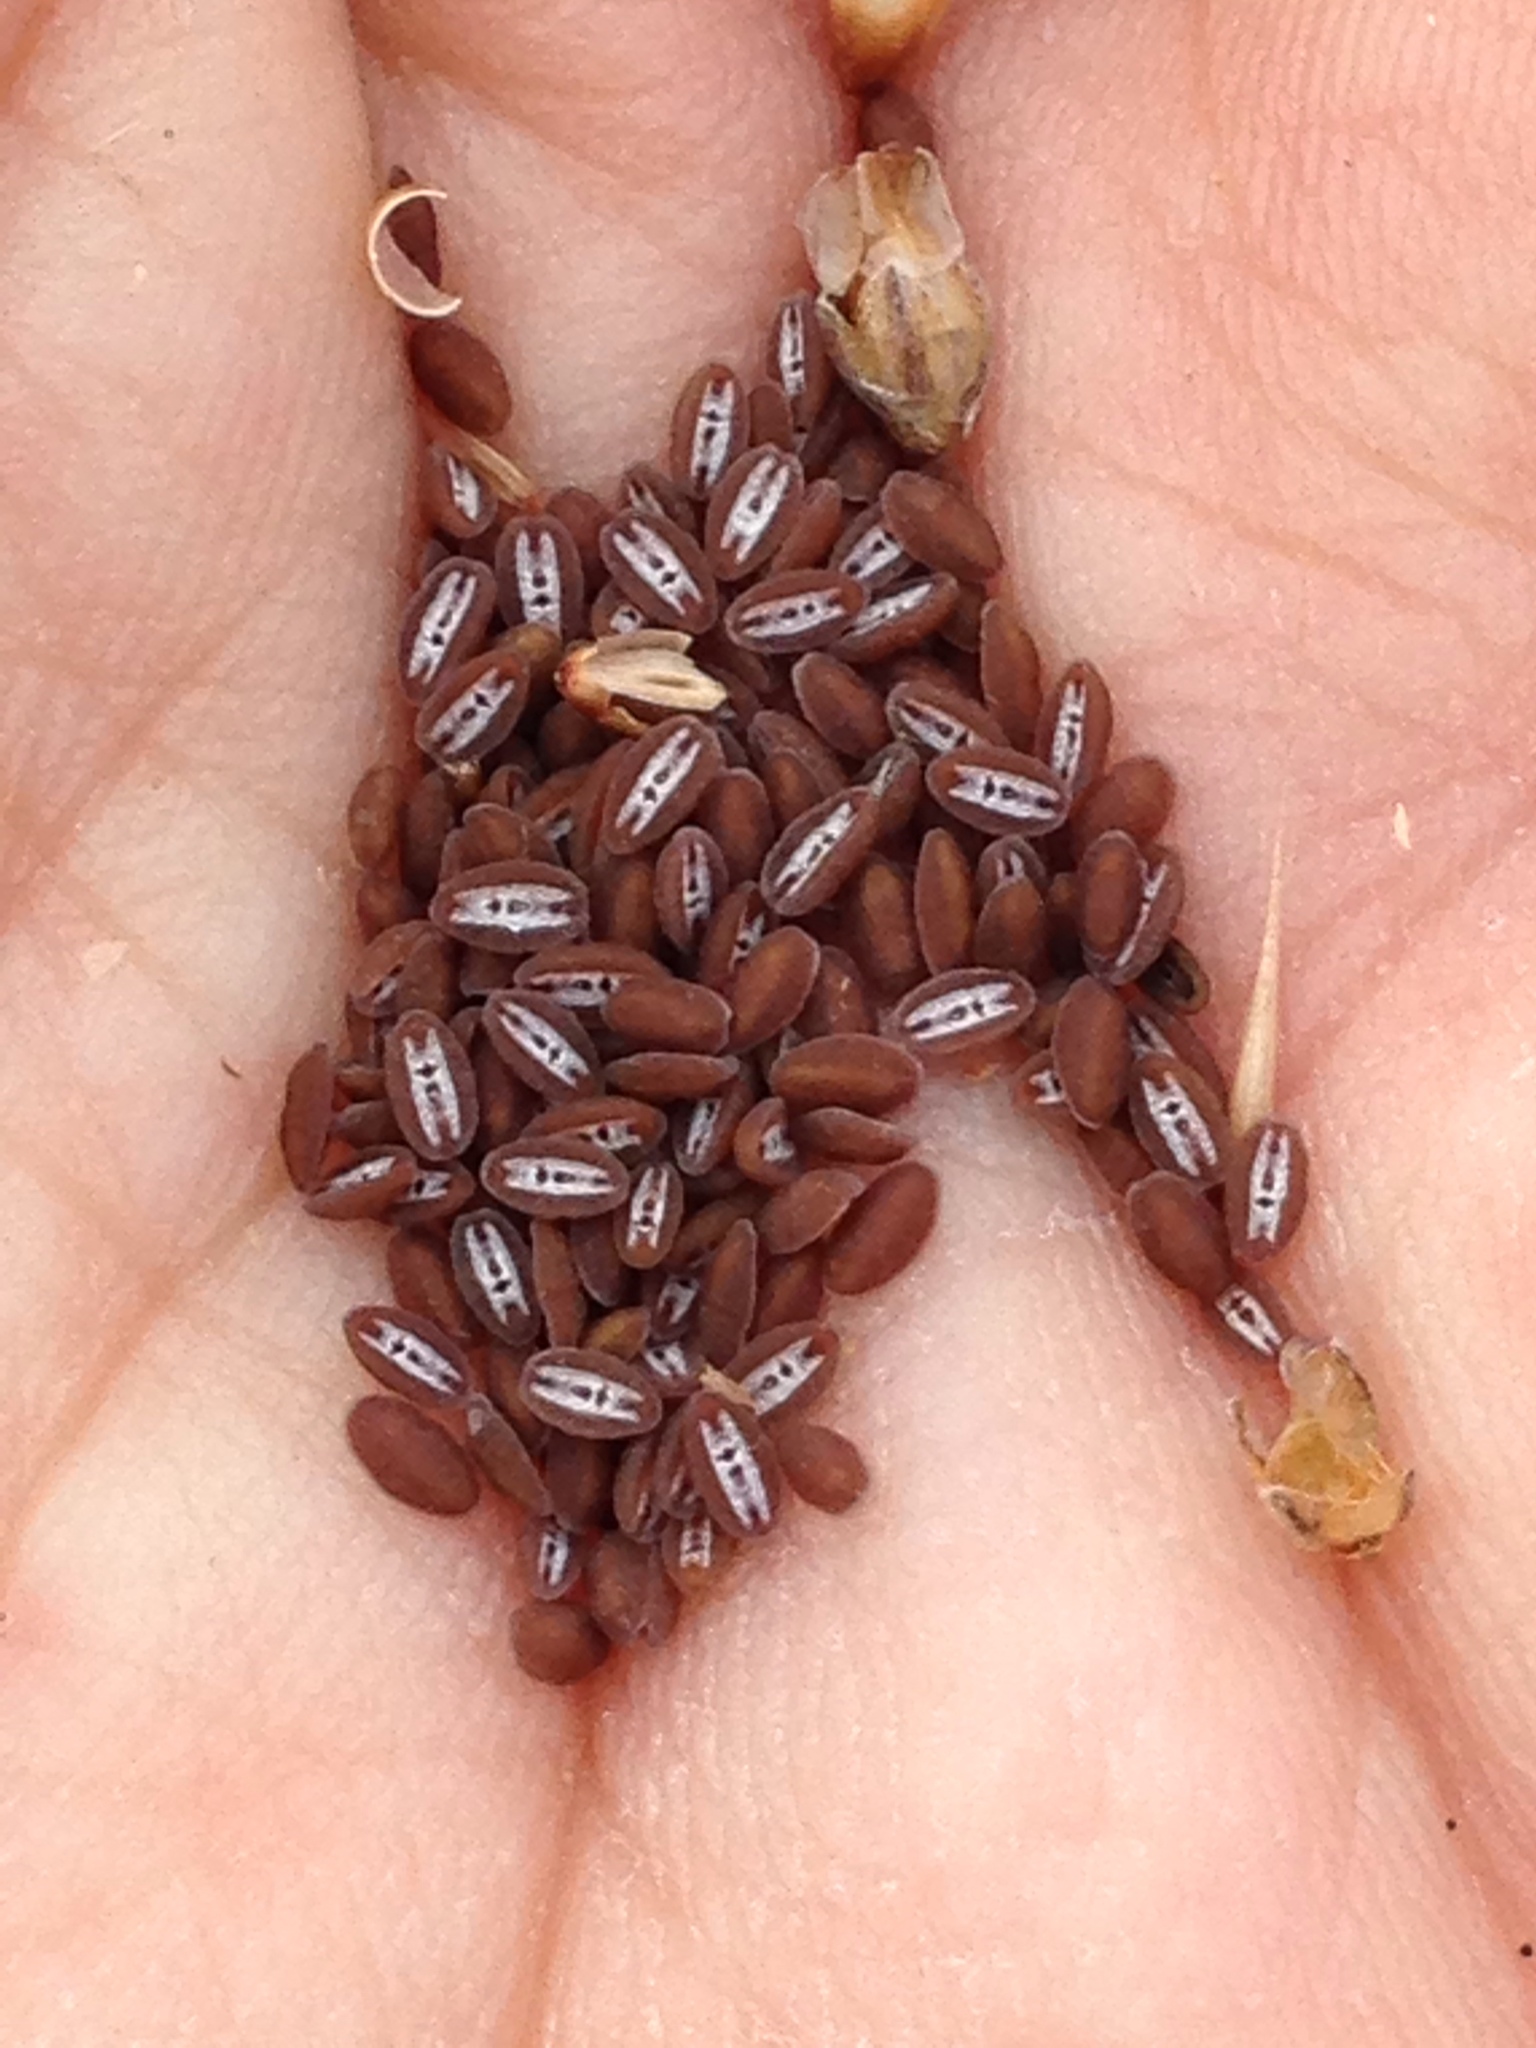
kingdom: Plantae
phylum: Tracheophyta
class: Magnoliopsida
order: Lamiales
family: Plantaginaceae
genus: Plantago
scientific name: Plantago erecta
